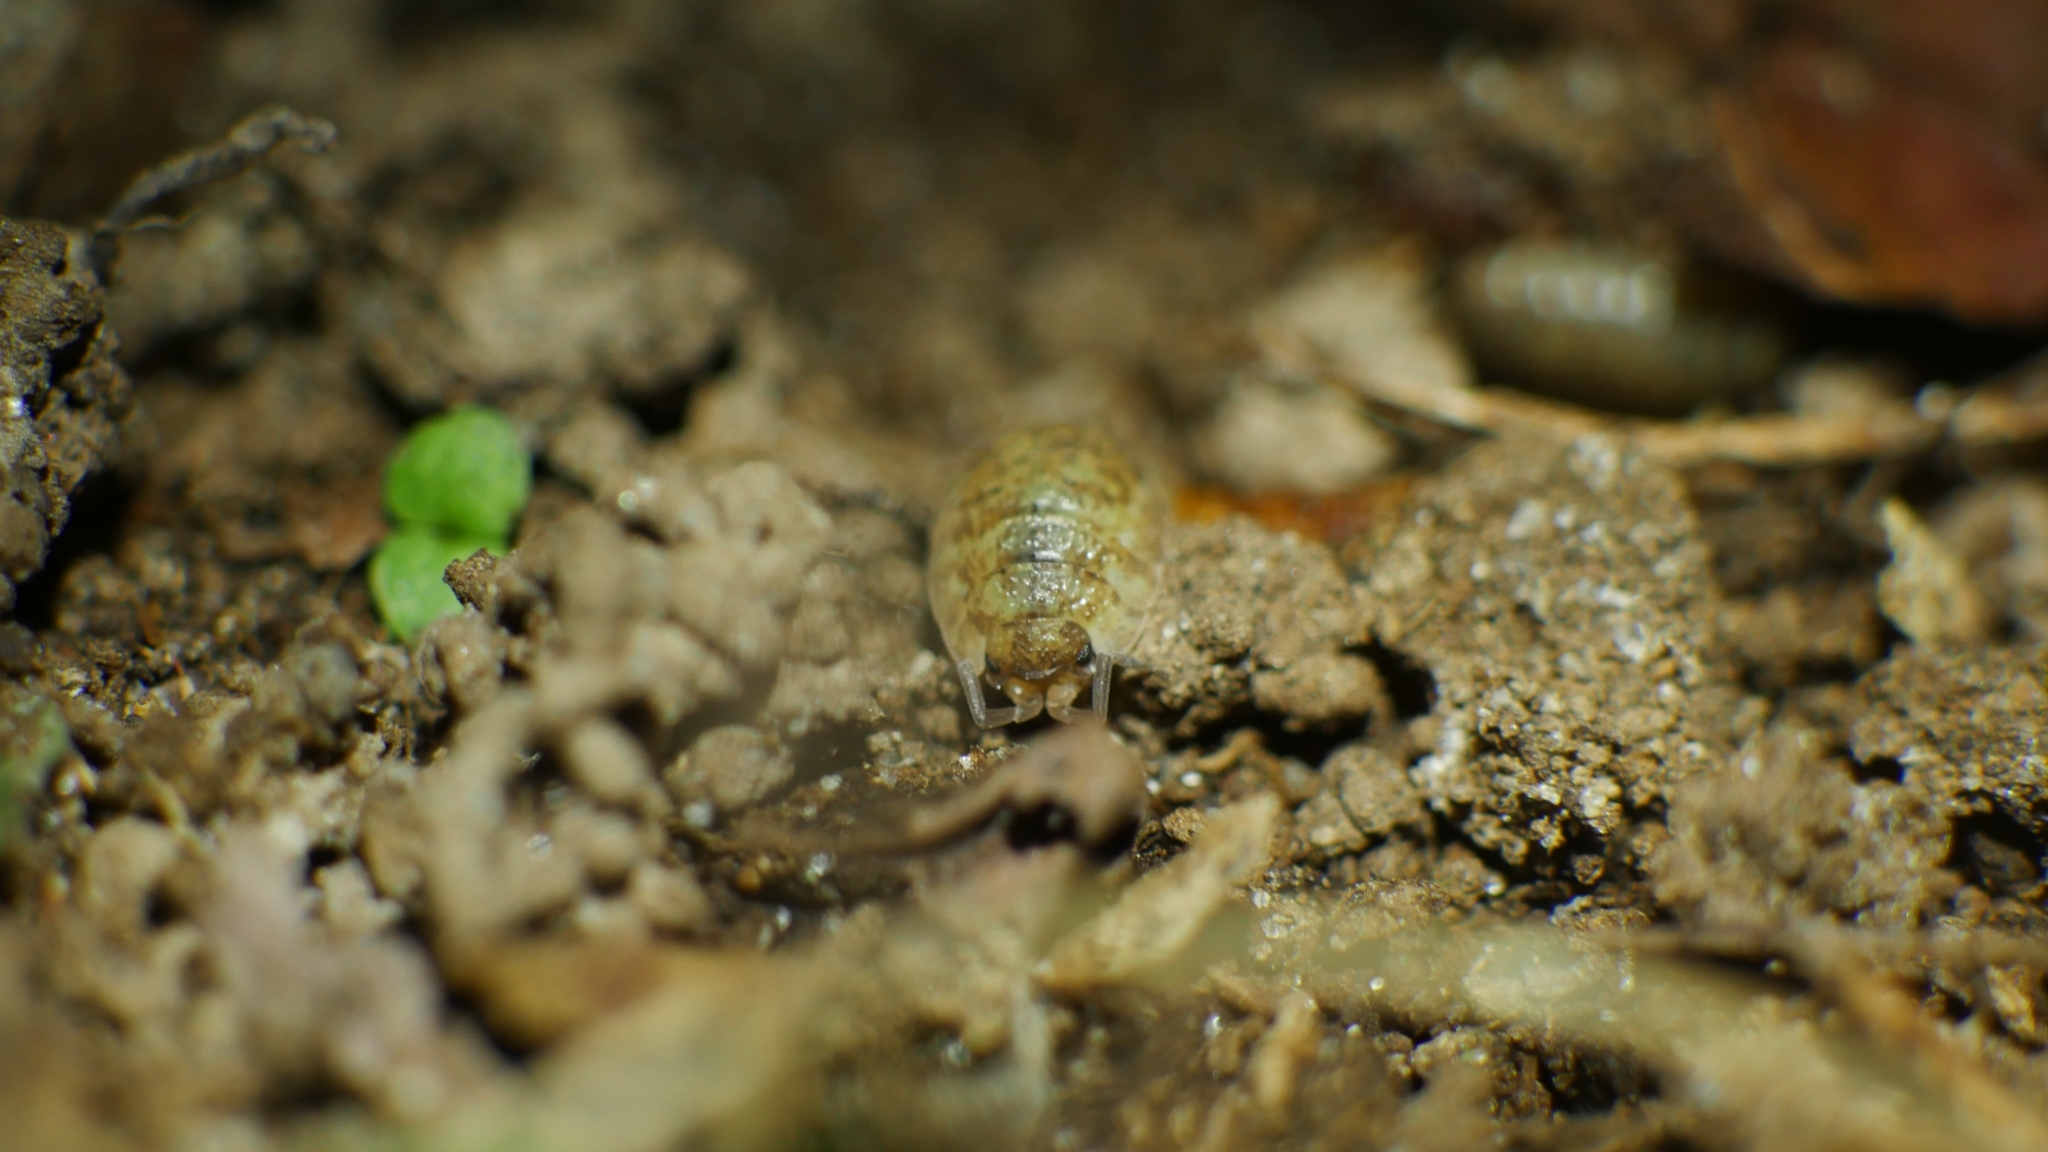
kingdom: Animalia
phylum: Arthropoda
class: Malacostraca
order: Isopoda
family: Porcellionidae
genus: Porcellio
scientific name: Porcellio scaber
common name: Common rough woodlouse
